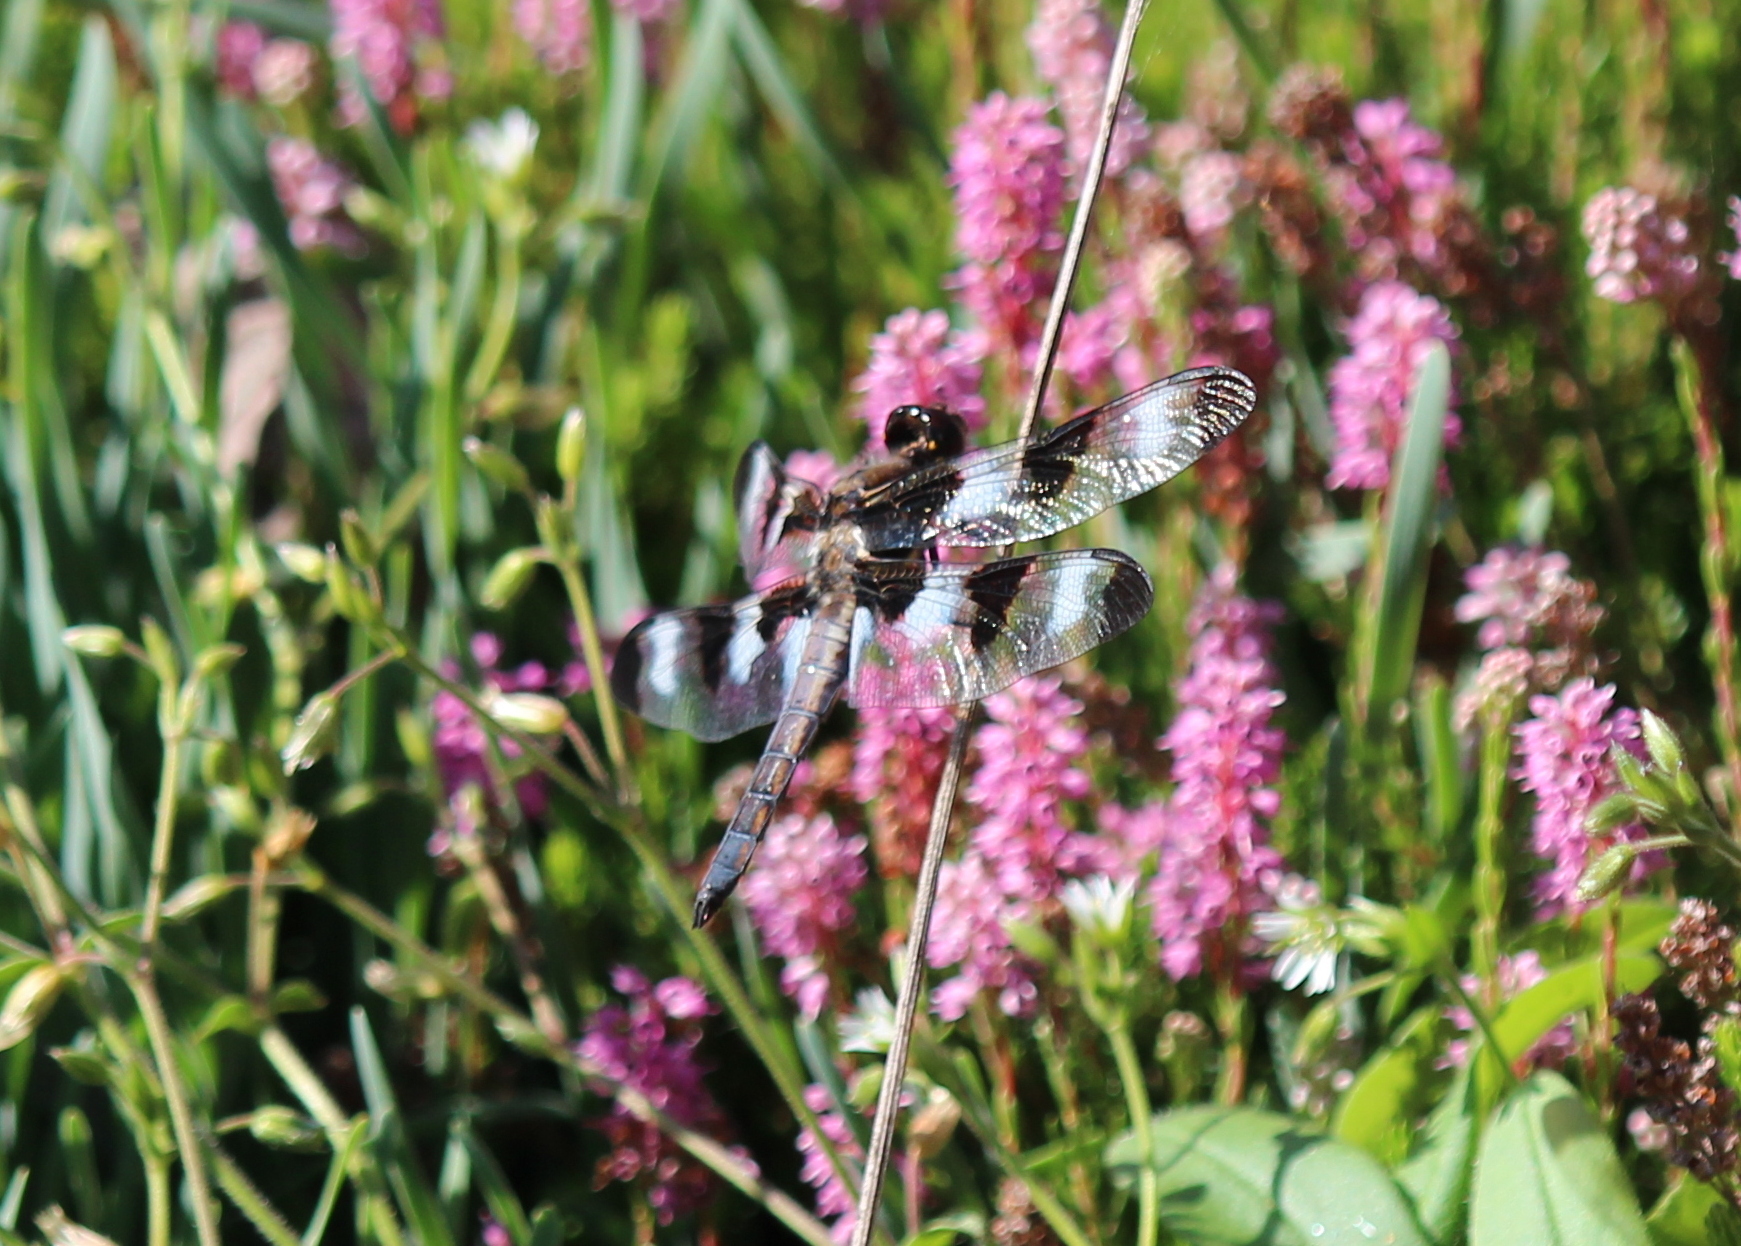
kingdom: Animalia
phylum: Arthropoda
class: Insecta
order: Odonata
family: Libellulidae
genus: Libellula
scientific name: Libellula pulchella
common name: Twelve-spotted skimmer
